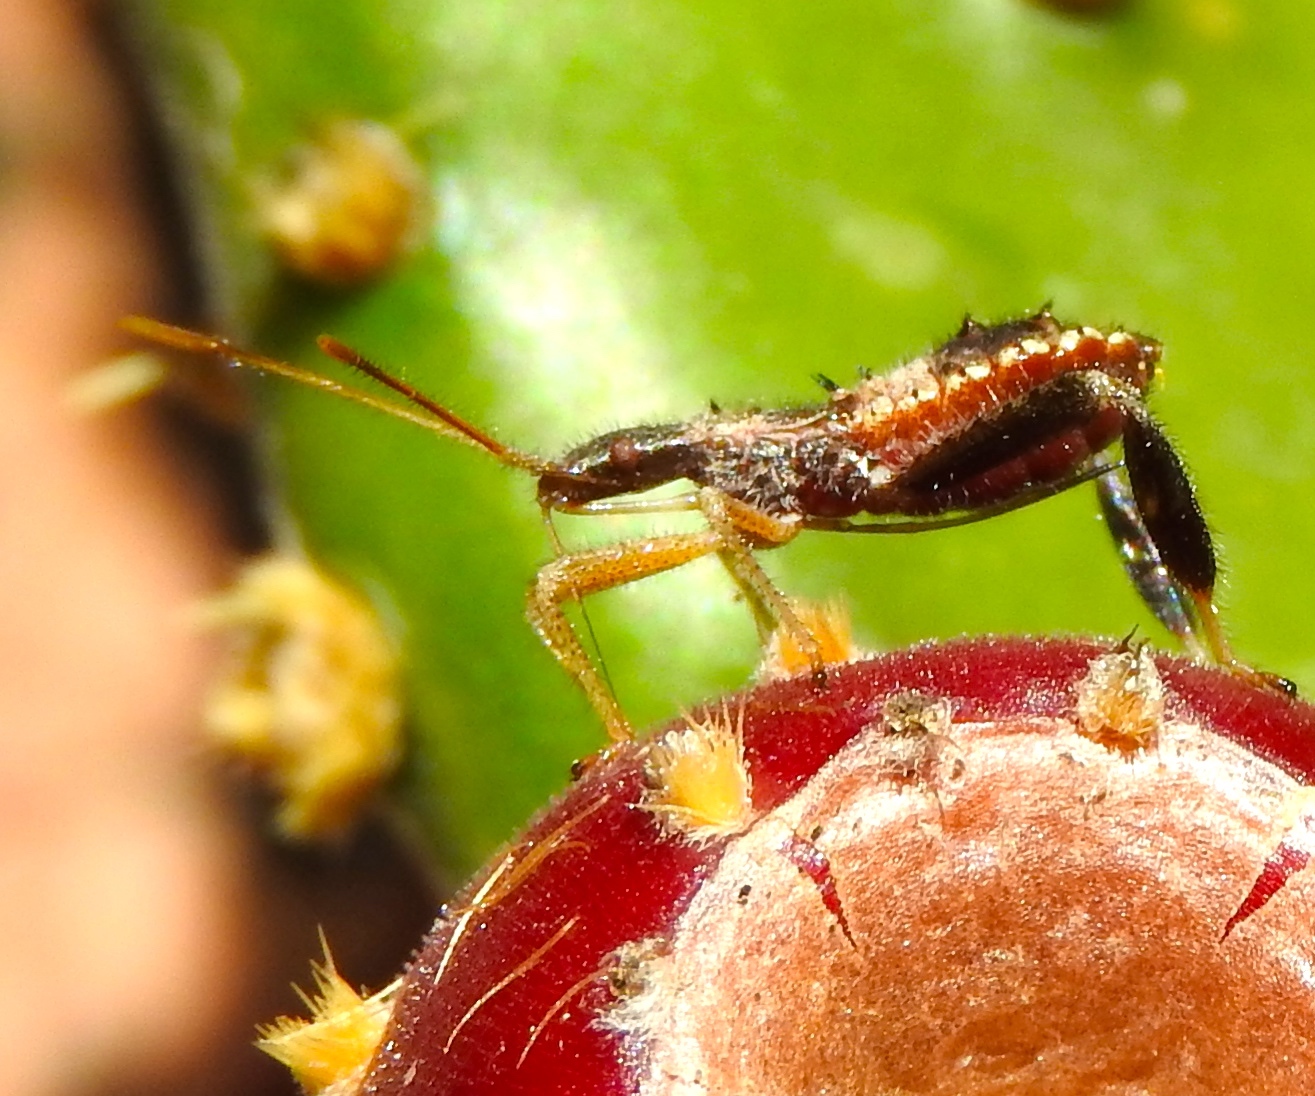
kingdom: Animalia
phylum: Arthropoda
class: Insecta
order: Hemiptera
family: Coreidae
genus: Narnia
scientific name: Narnia
